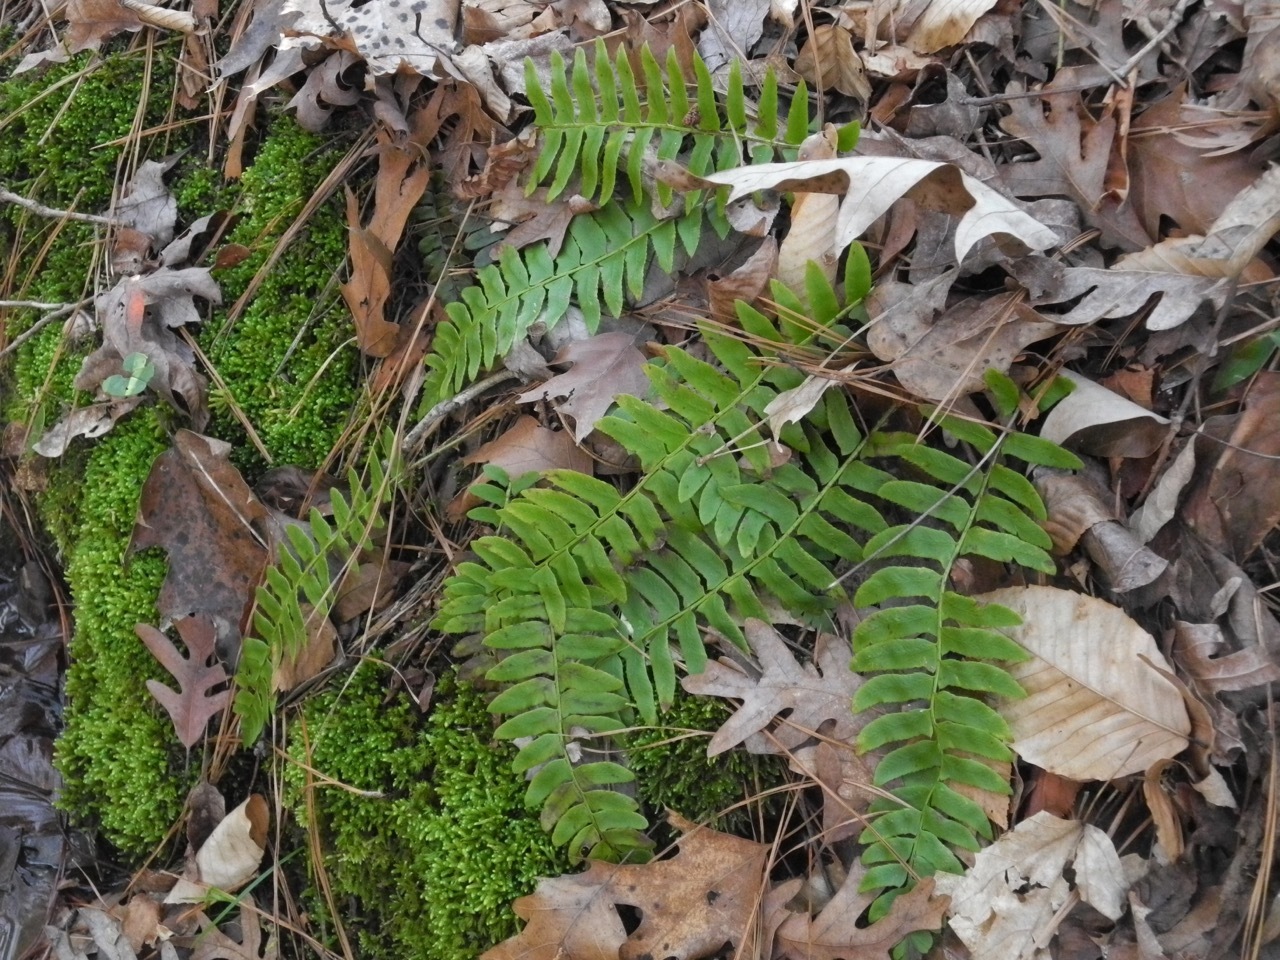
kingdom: Plantae
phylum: Tracheophyta
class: Polypodiopsida
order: Polypodiales
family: Dryopteridaceae
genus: Polystichum
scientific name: Polystichum acrostichoides
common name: Christmas fern
